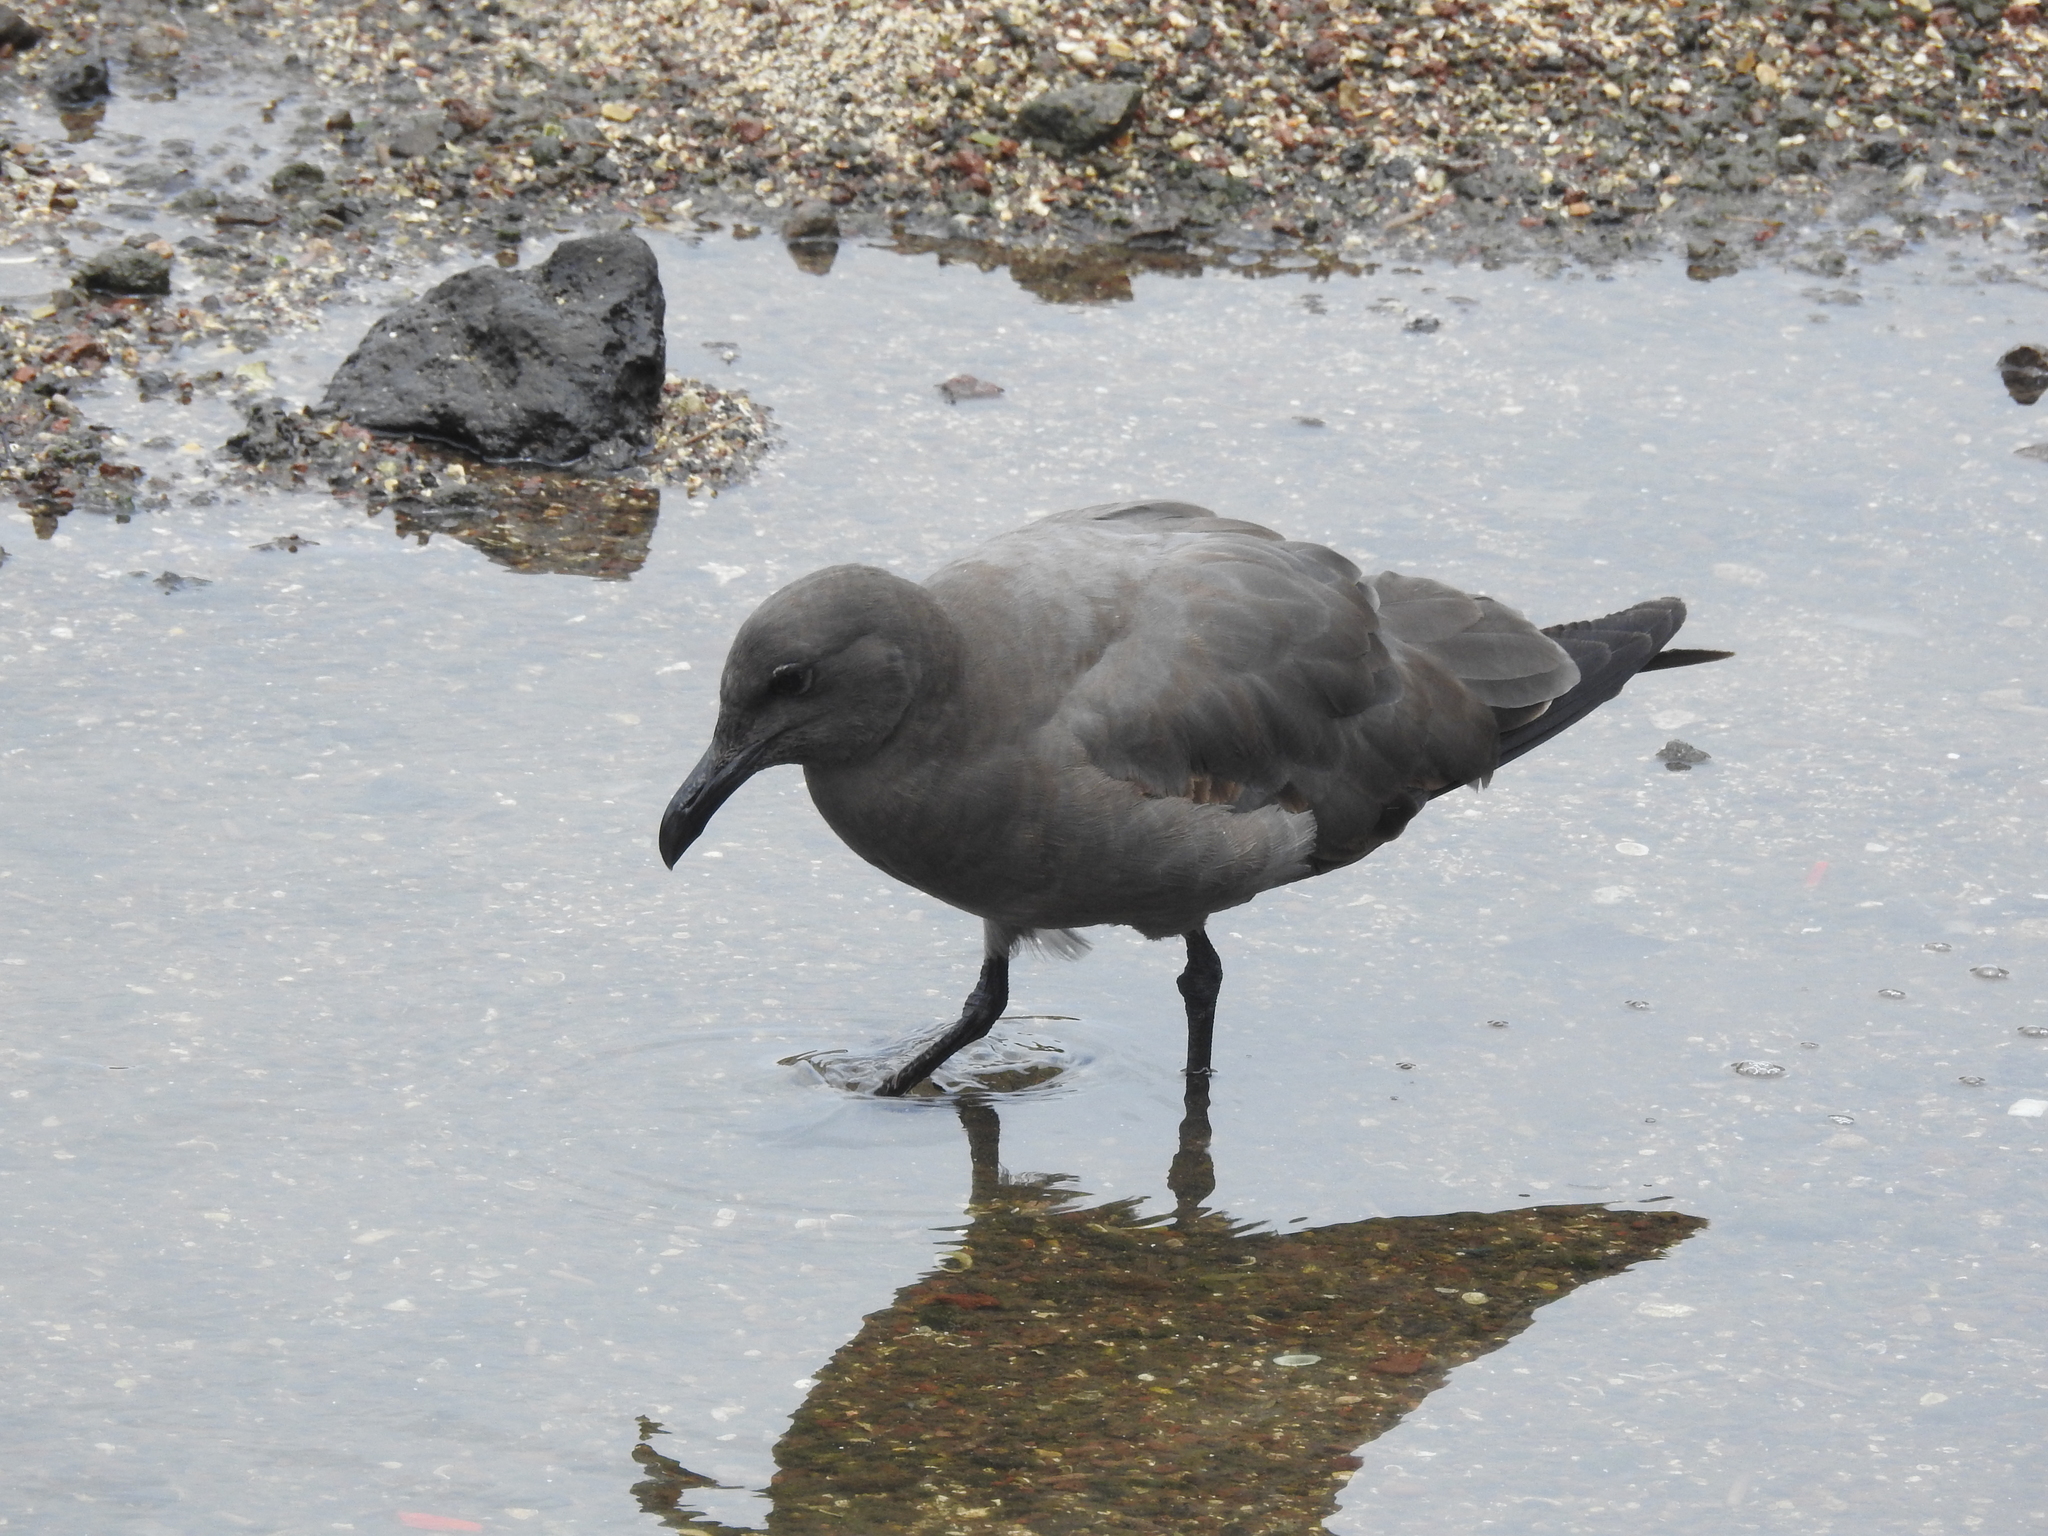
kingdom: Animalia
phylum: Chordata
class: Aves
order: Charadriiformes
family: Laridae
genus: Leucophaeus
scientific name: Leucophaeus fuliginosus
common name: Lava gull
